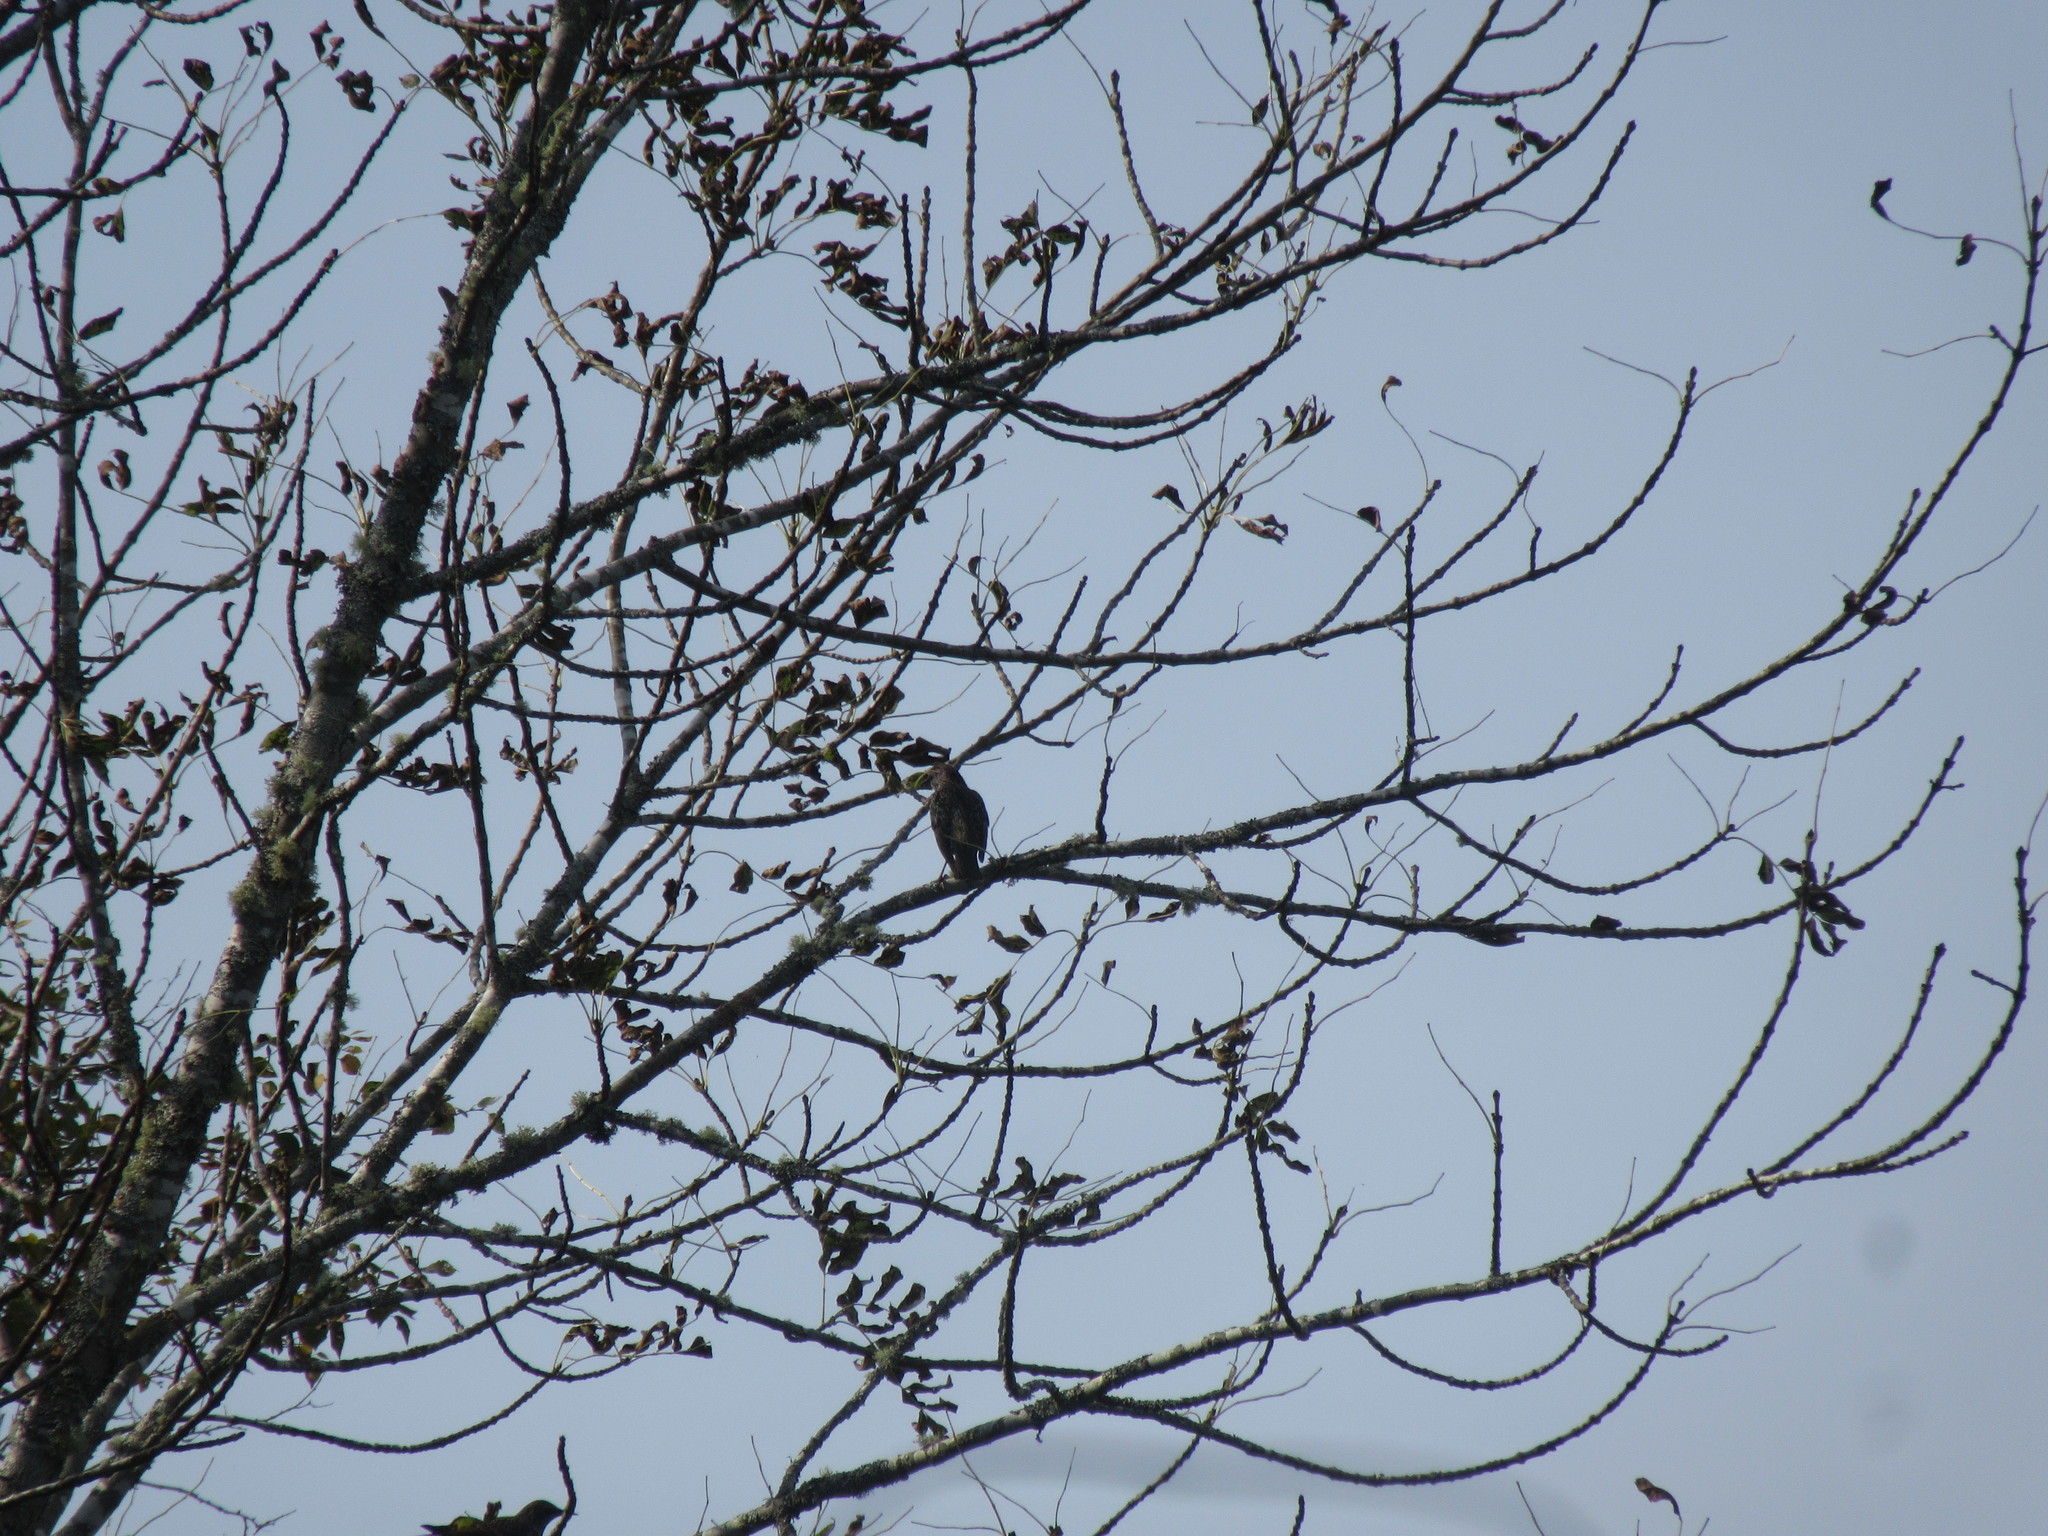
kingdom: Animalia
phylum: Chordata
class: Aves
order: Passeriformes
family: Sturnidae
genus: Sturnus
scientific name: Sturnus vulgaris
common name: Common starling
